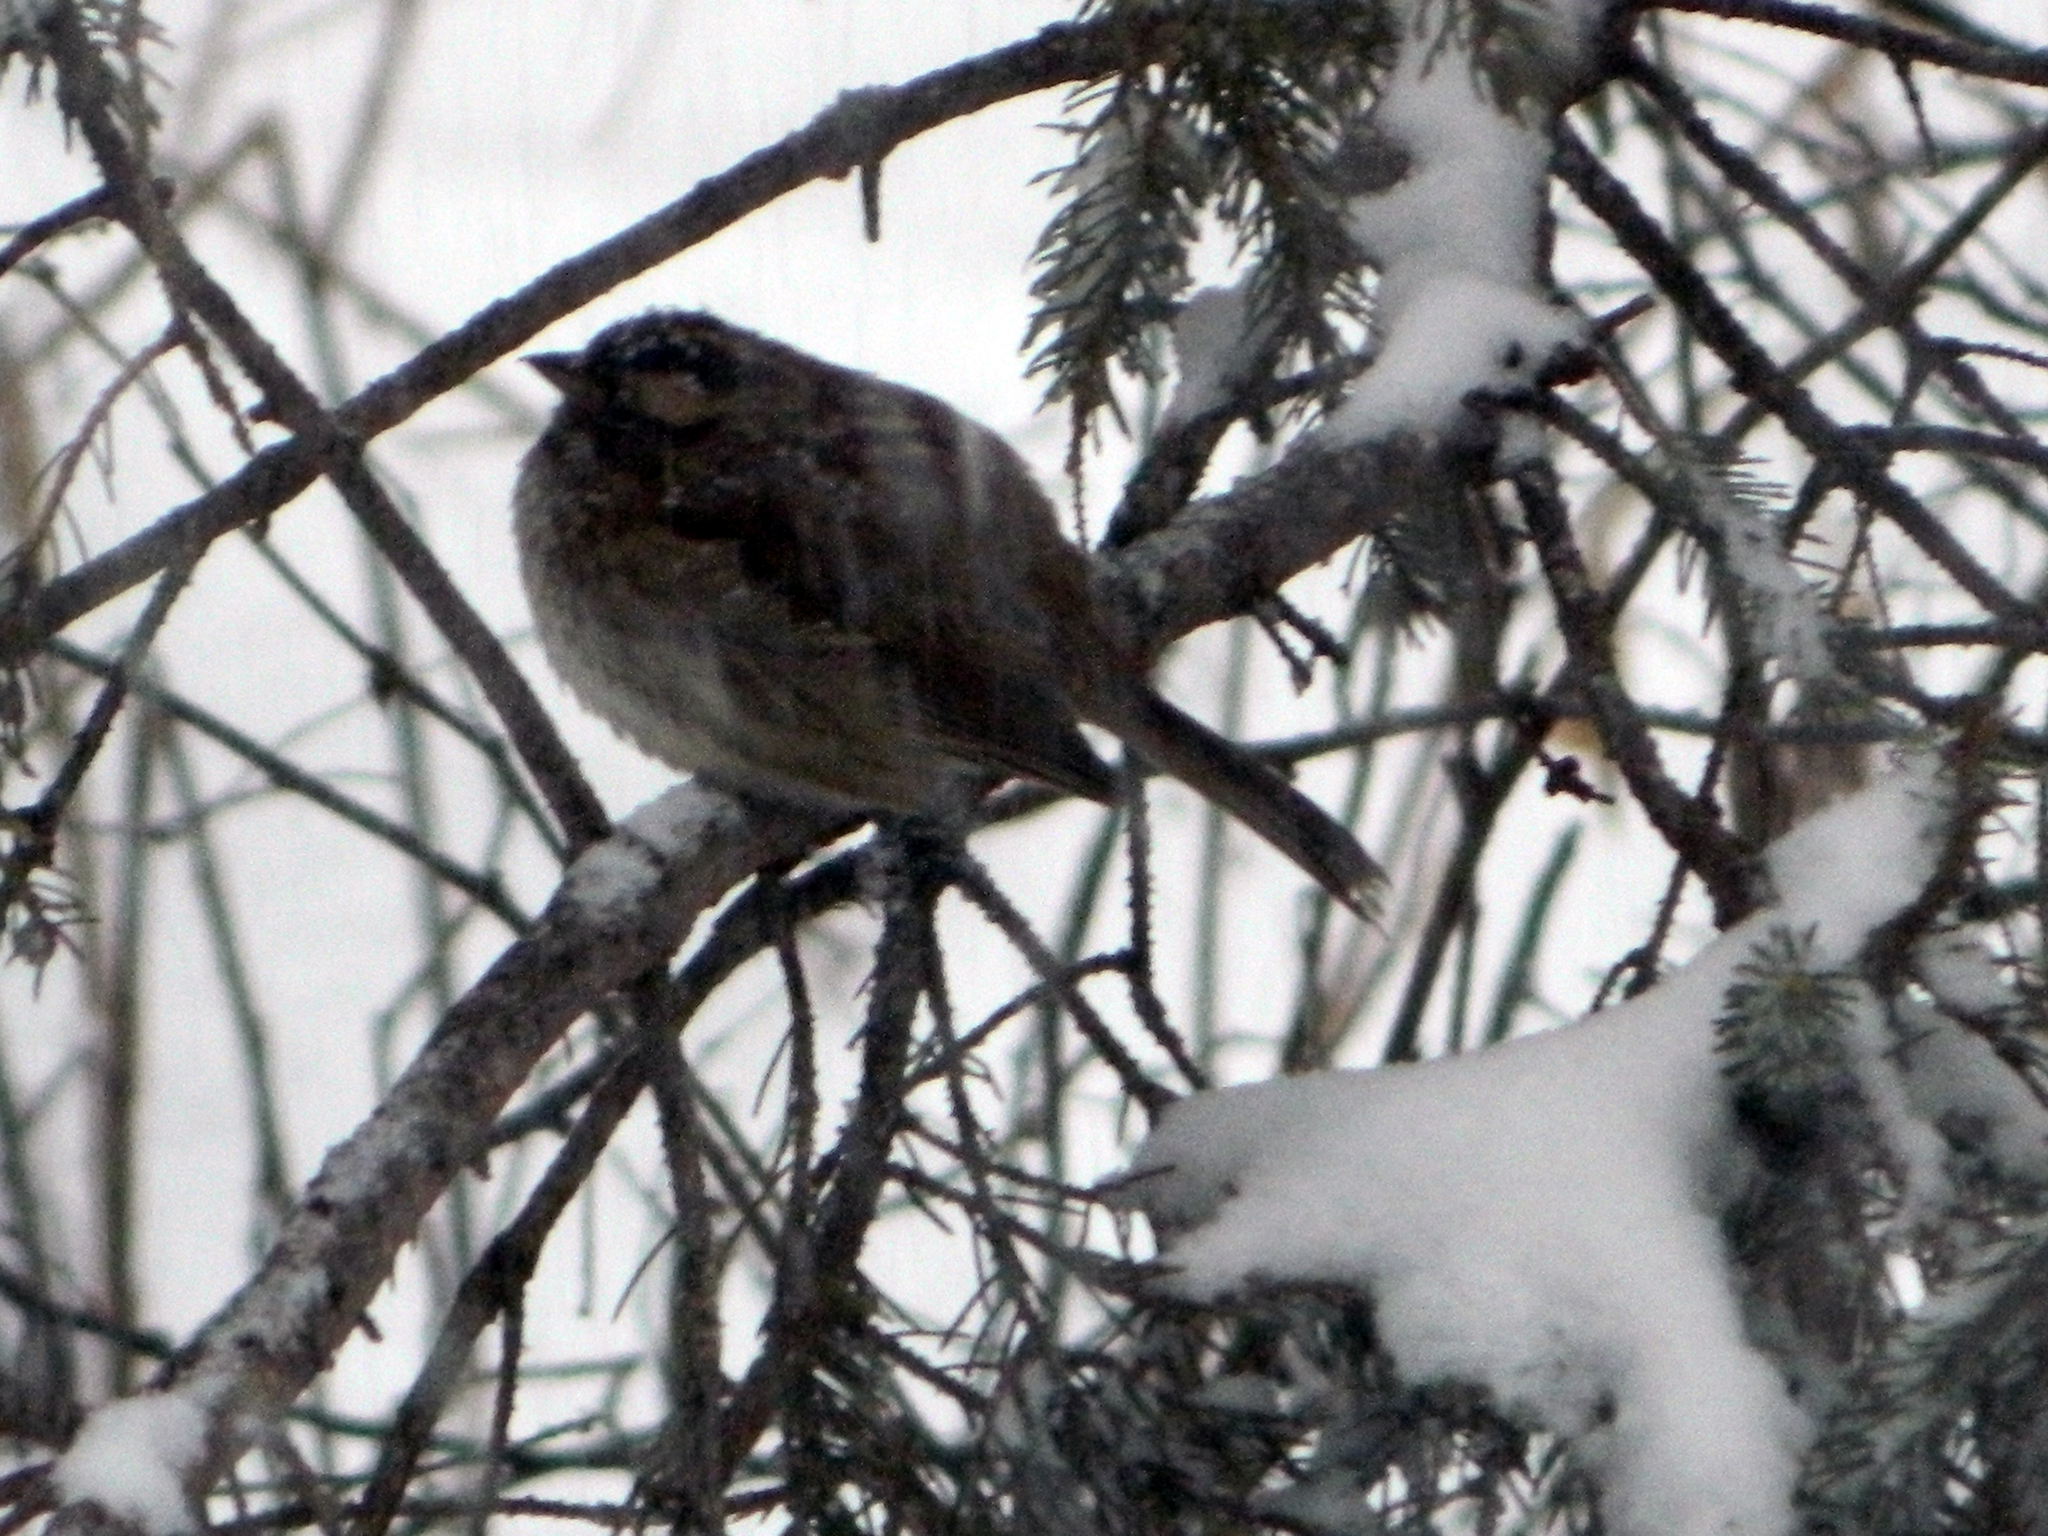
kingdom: Animalia
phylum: Chordata
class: Aves
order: Passeriformes
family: Passerellidae
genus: Zonotrichia
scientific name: Zonotrichia albicollis
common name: White-throated sparrow
